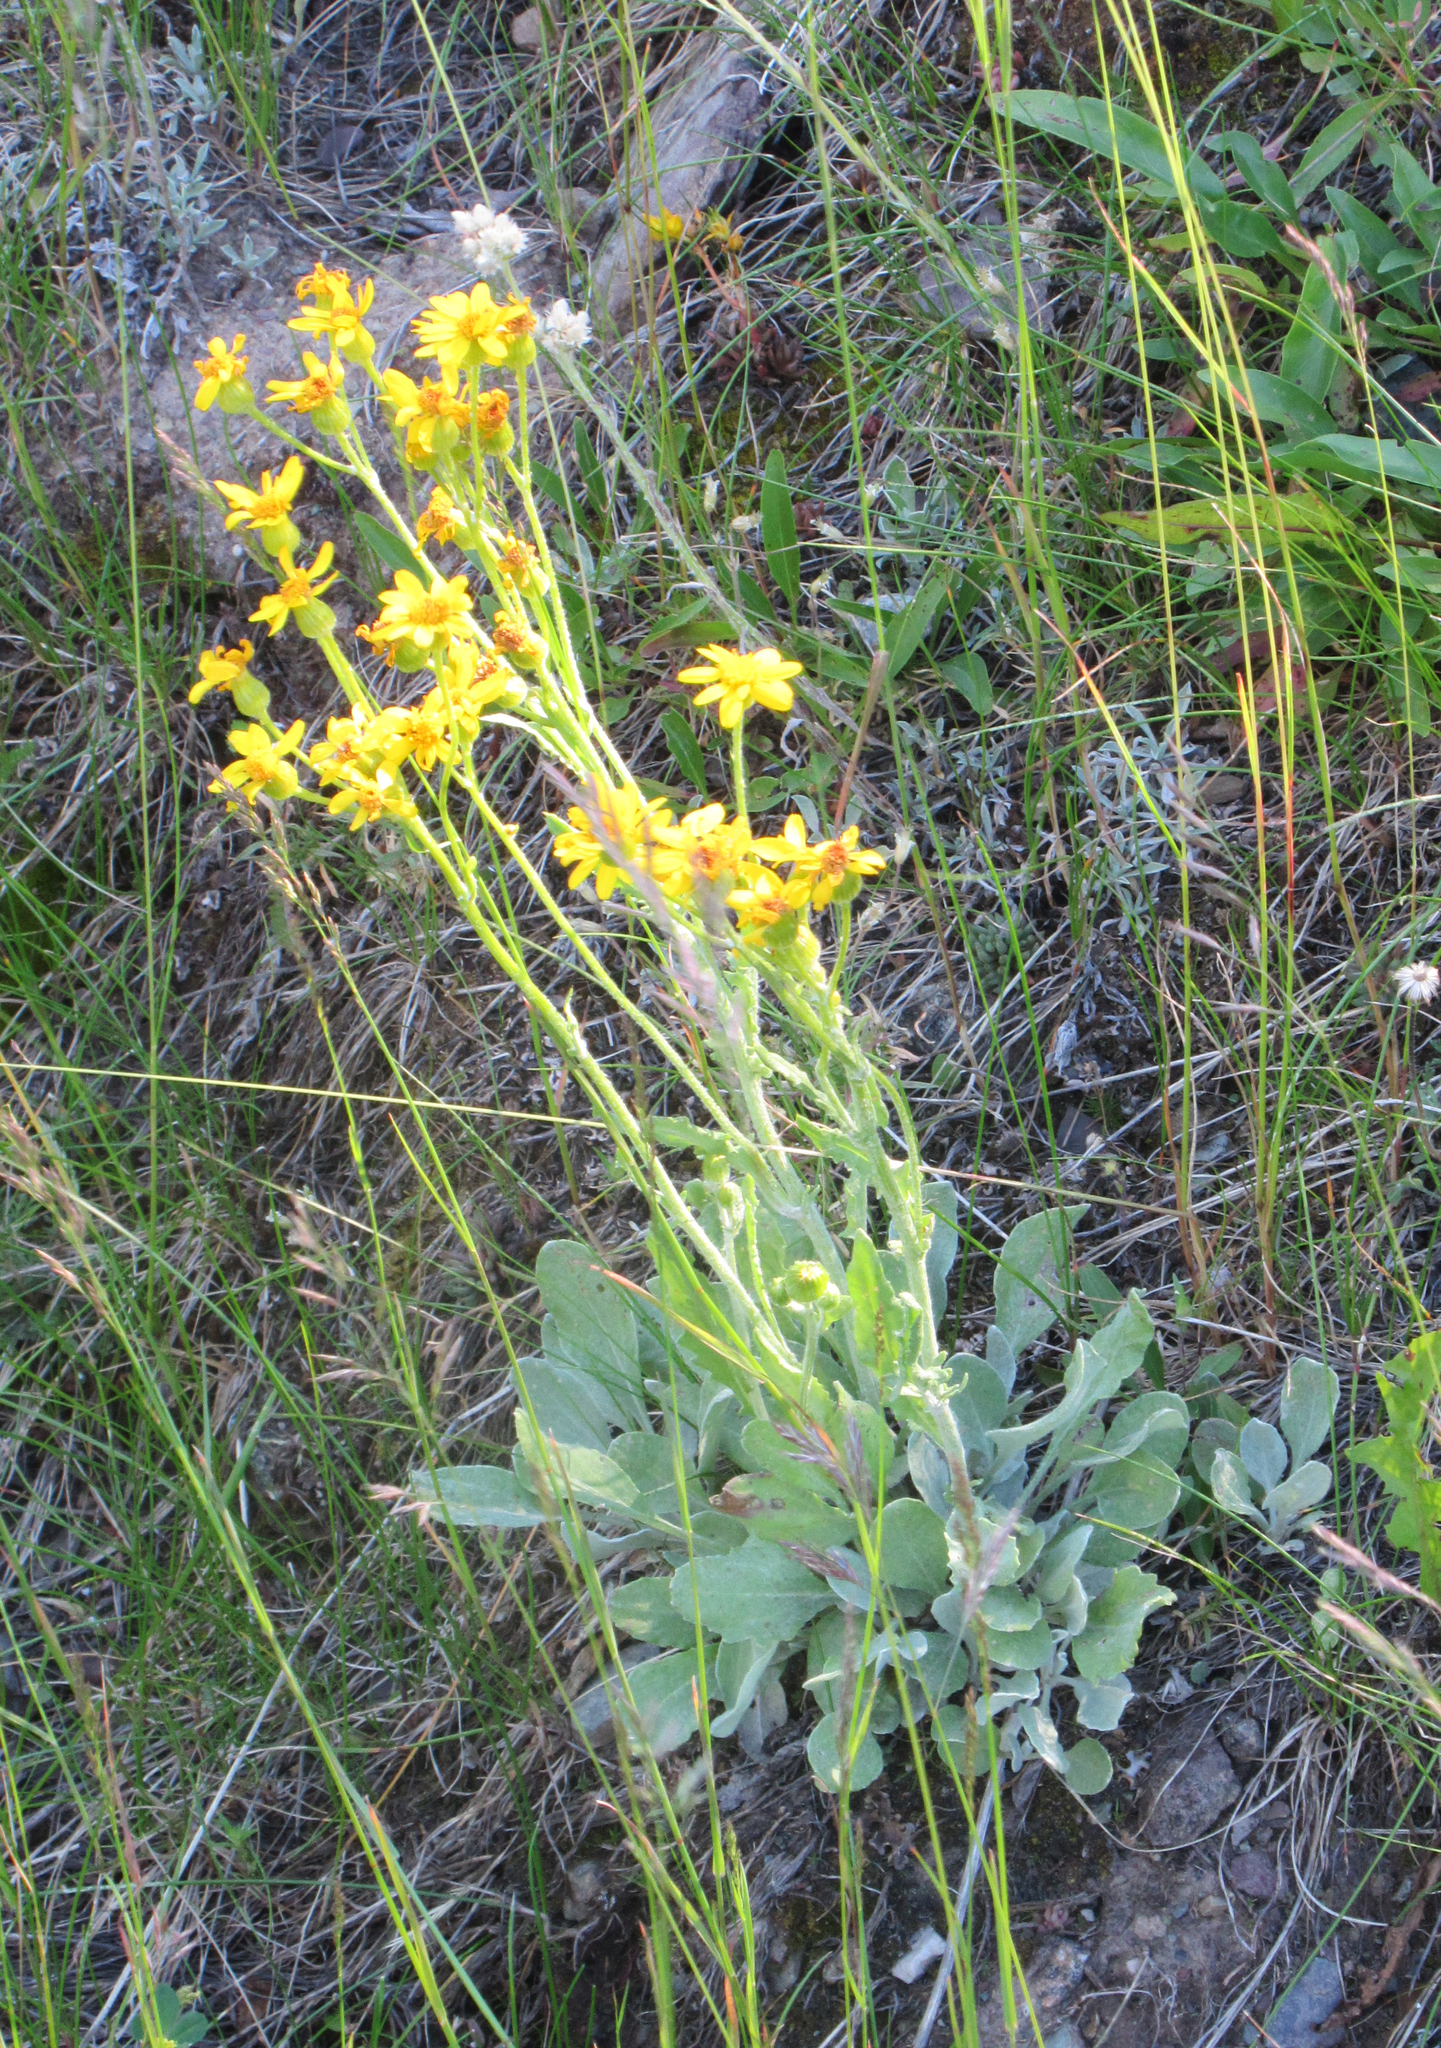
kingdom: Plantae
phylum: Tracheophyta
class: Magnoliopsida
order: Asterales
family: Asteraceae
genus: Packera
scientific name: Packera cana
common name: Woolly groundsel
